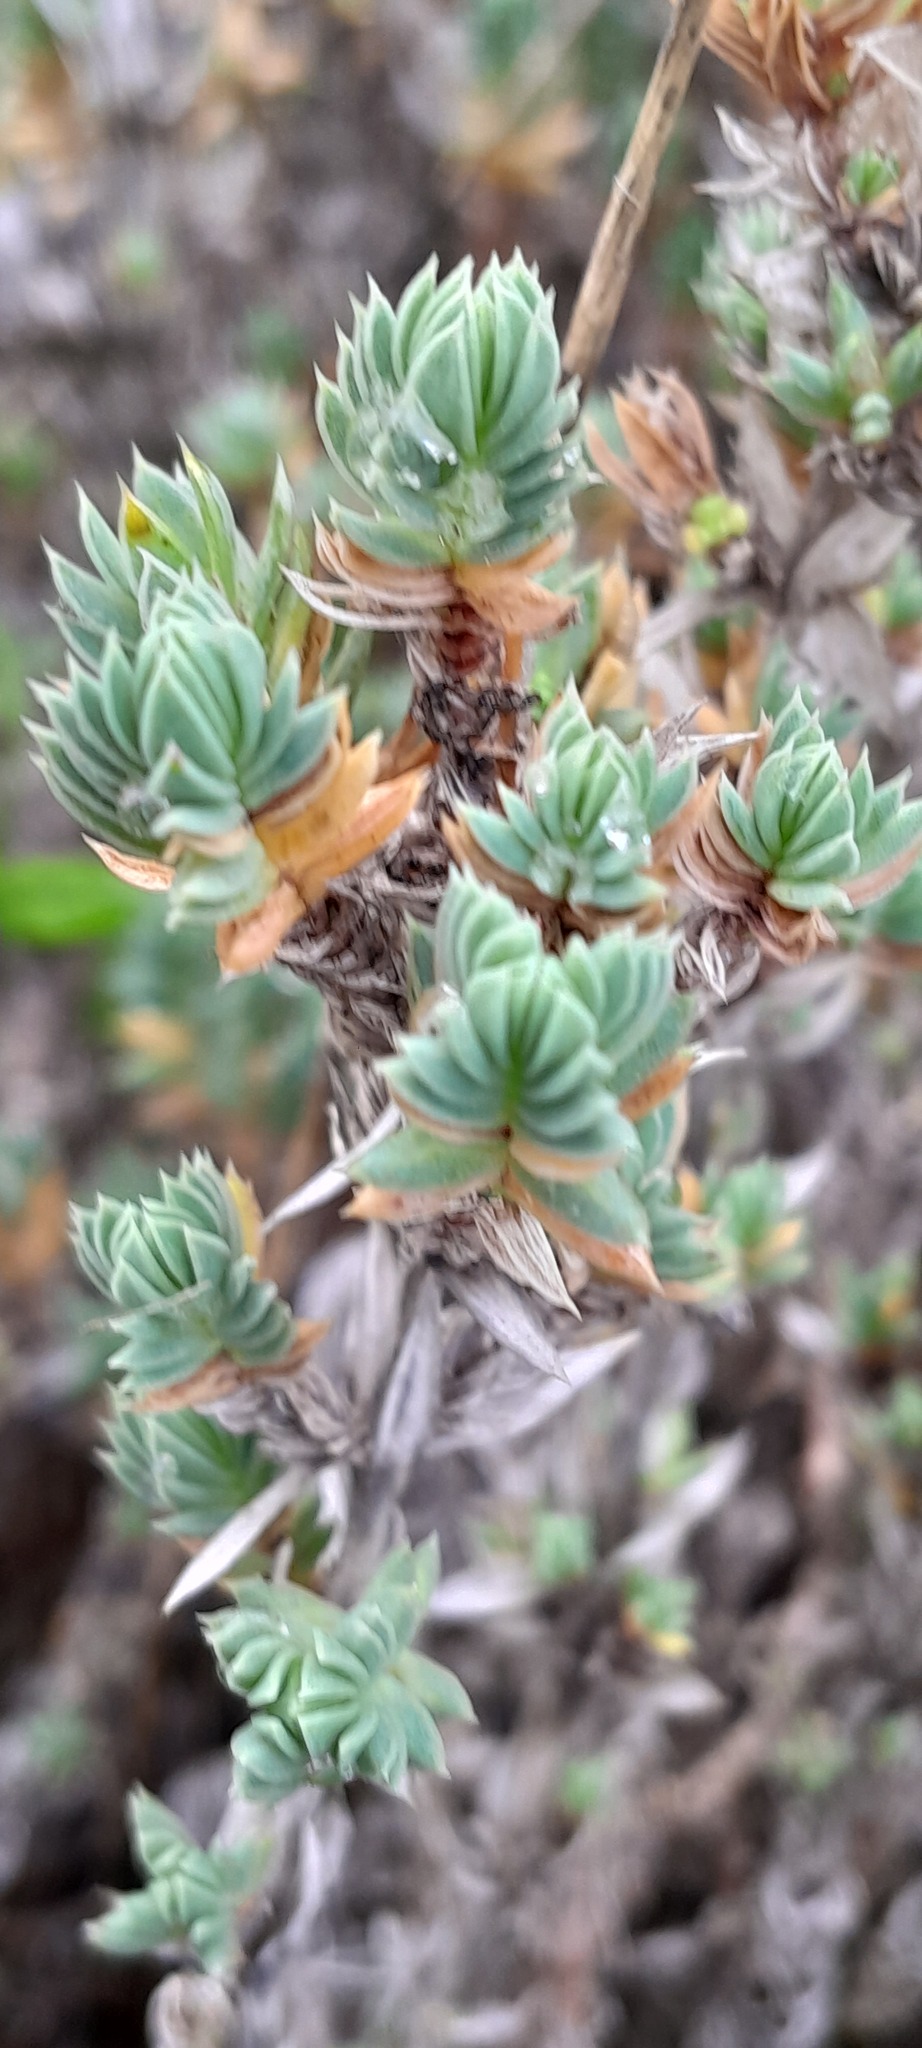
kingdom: Plantae
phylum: Tracheophyta
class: Magnoliopsida
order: Gentianales
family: Rubiaceae
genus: Crucianella
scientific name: Crucianella maritima
